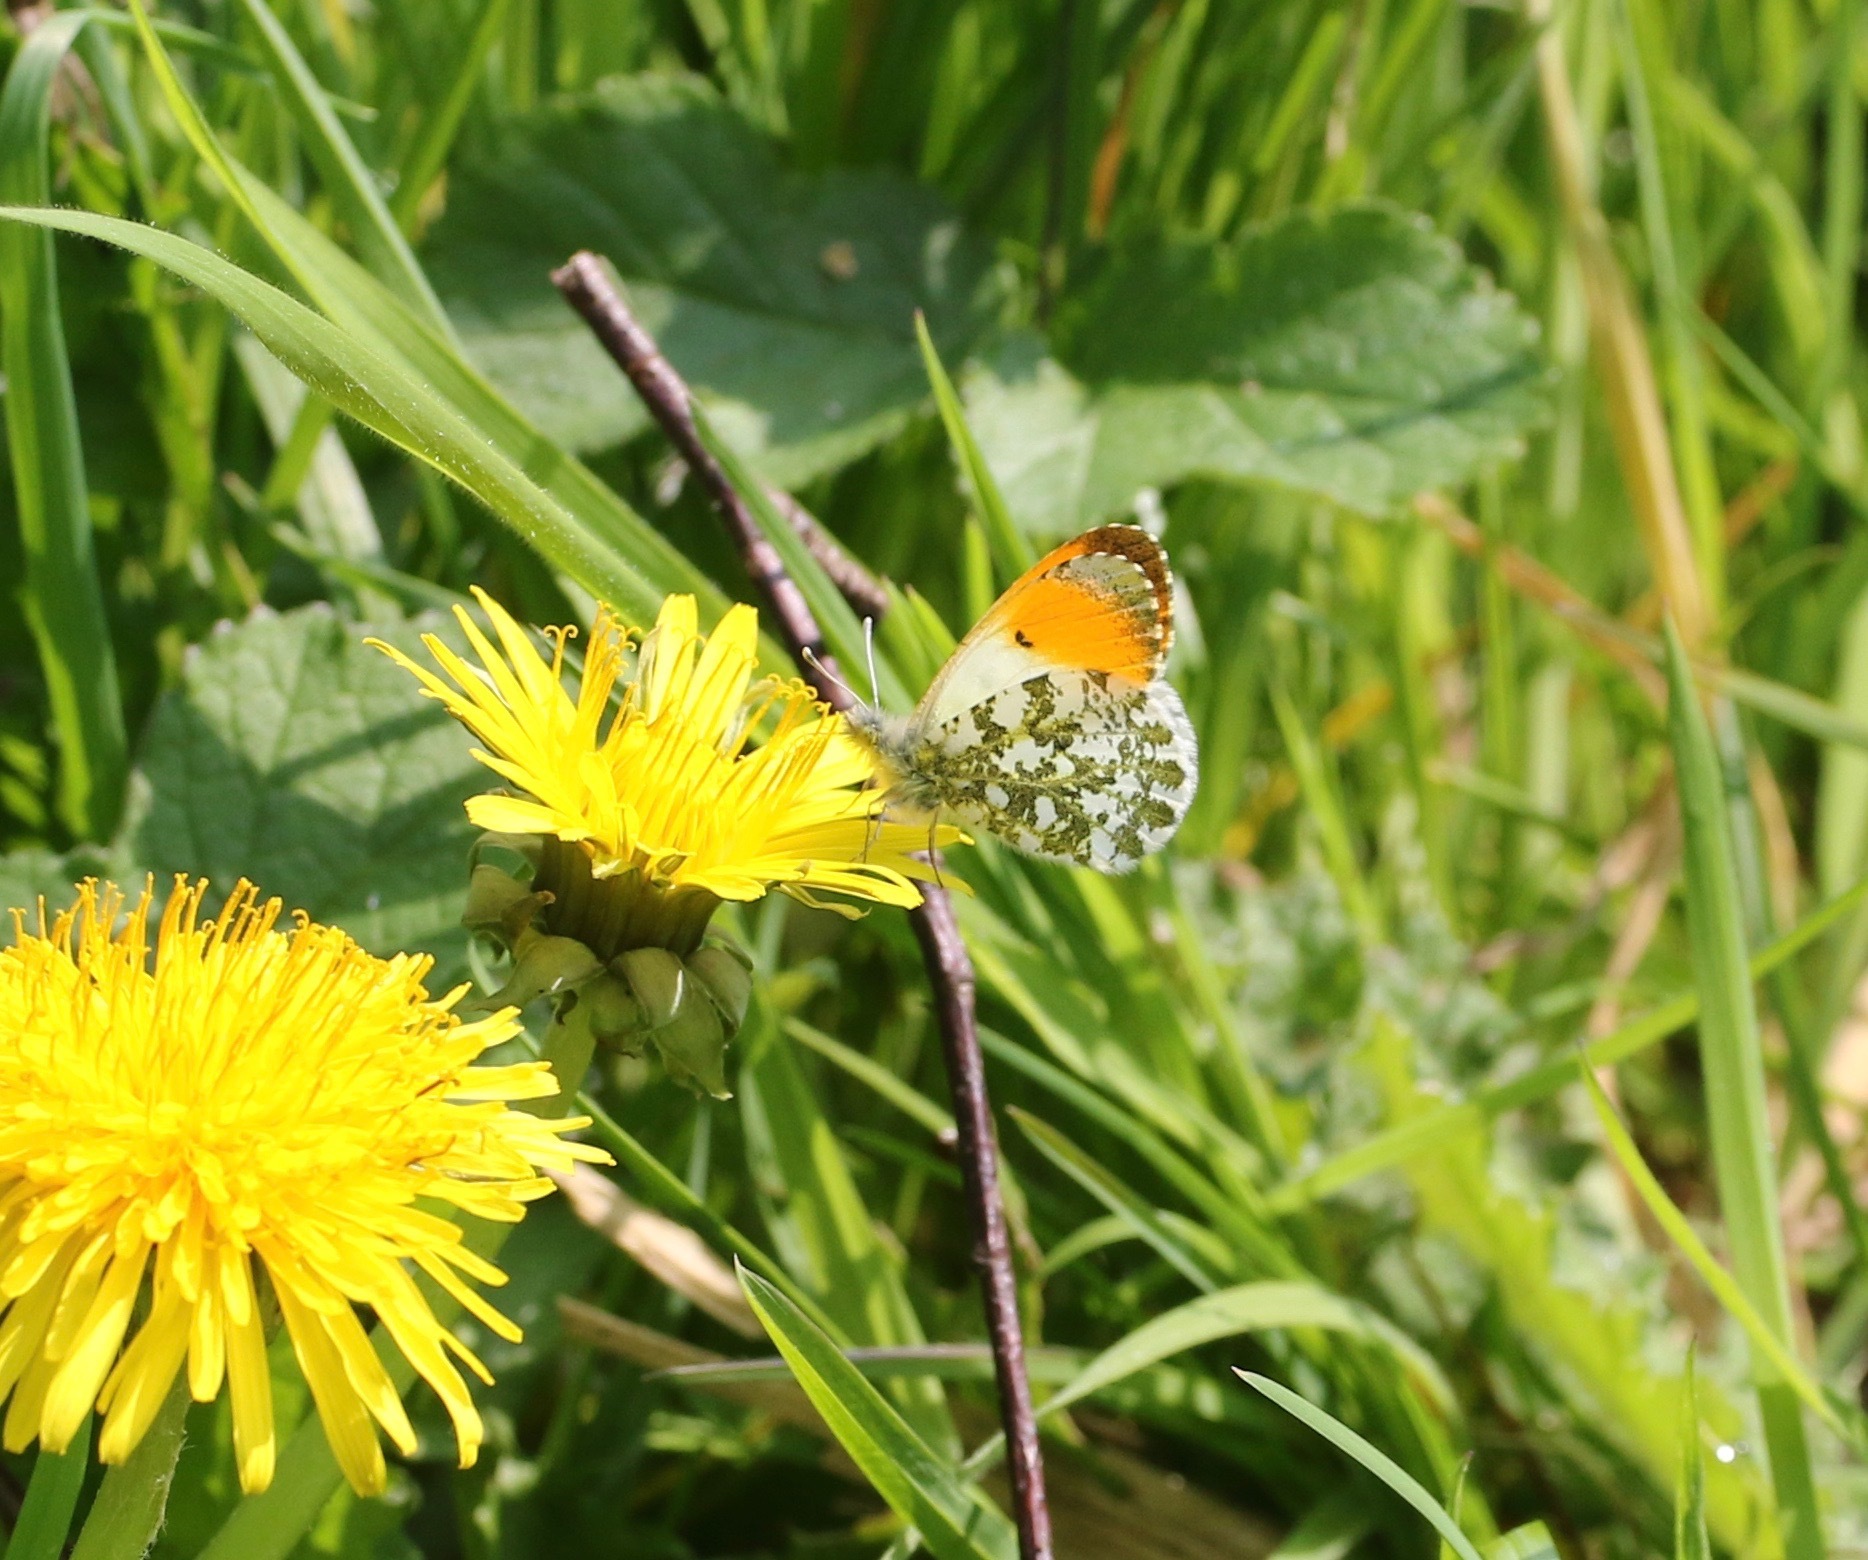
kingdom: Animalia
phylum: Arthropoda
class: Insecta
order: Lepidoptera
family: Pieridae
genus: Anthocharis
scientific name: Anthocharis cardamines
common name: Orange-tip
